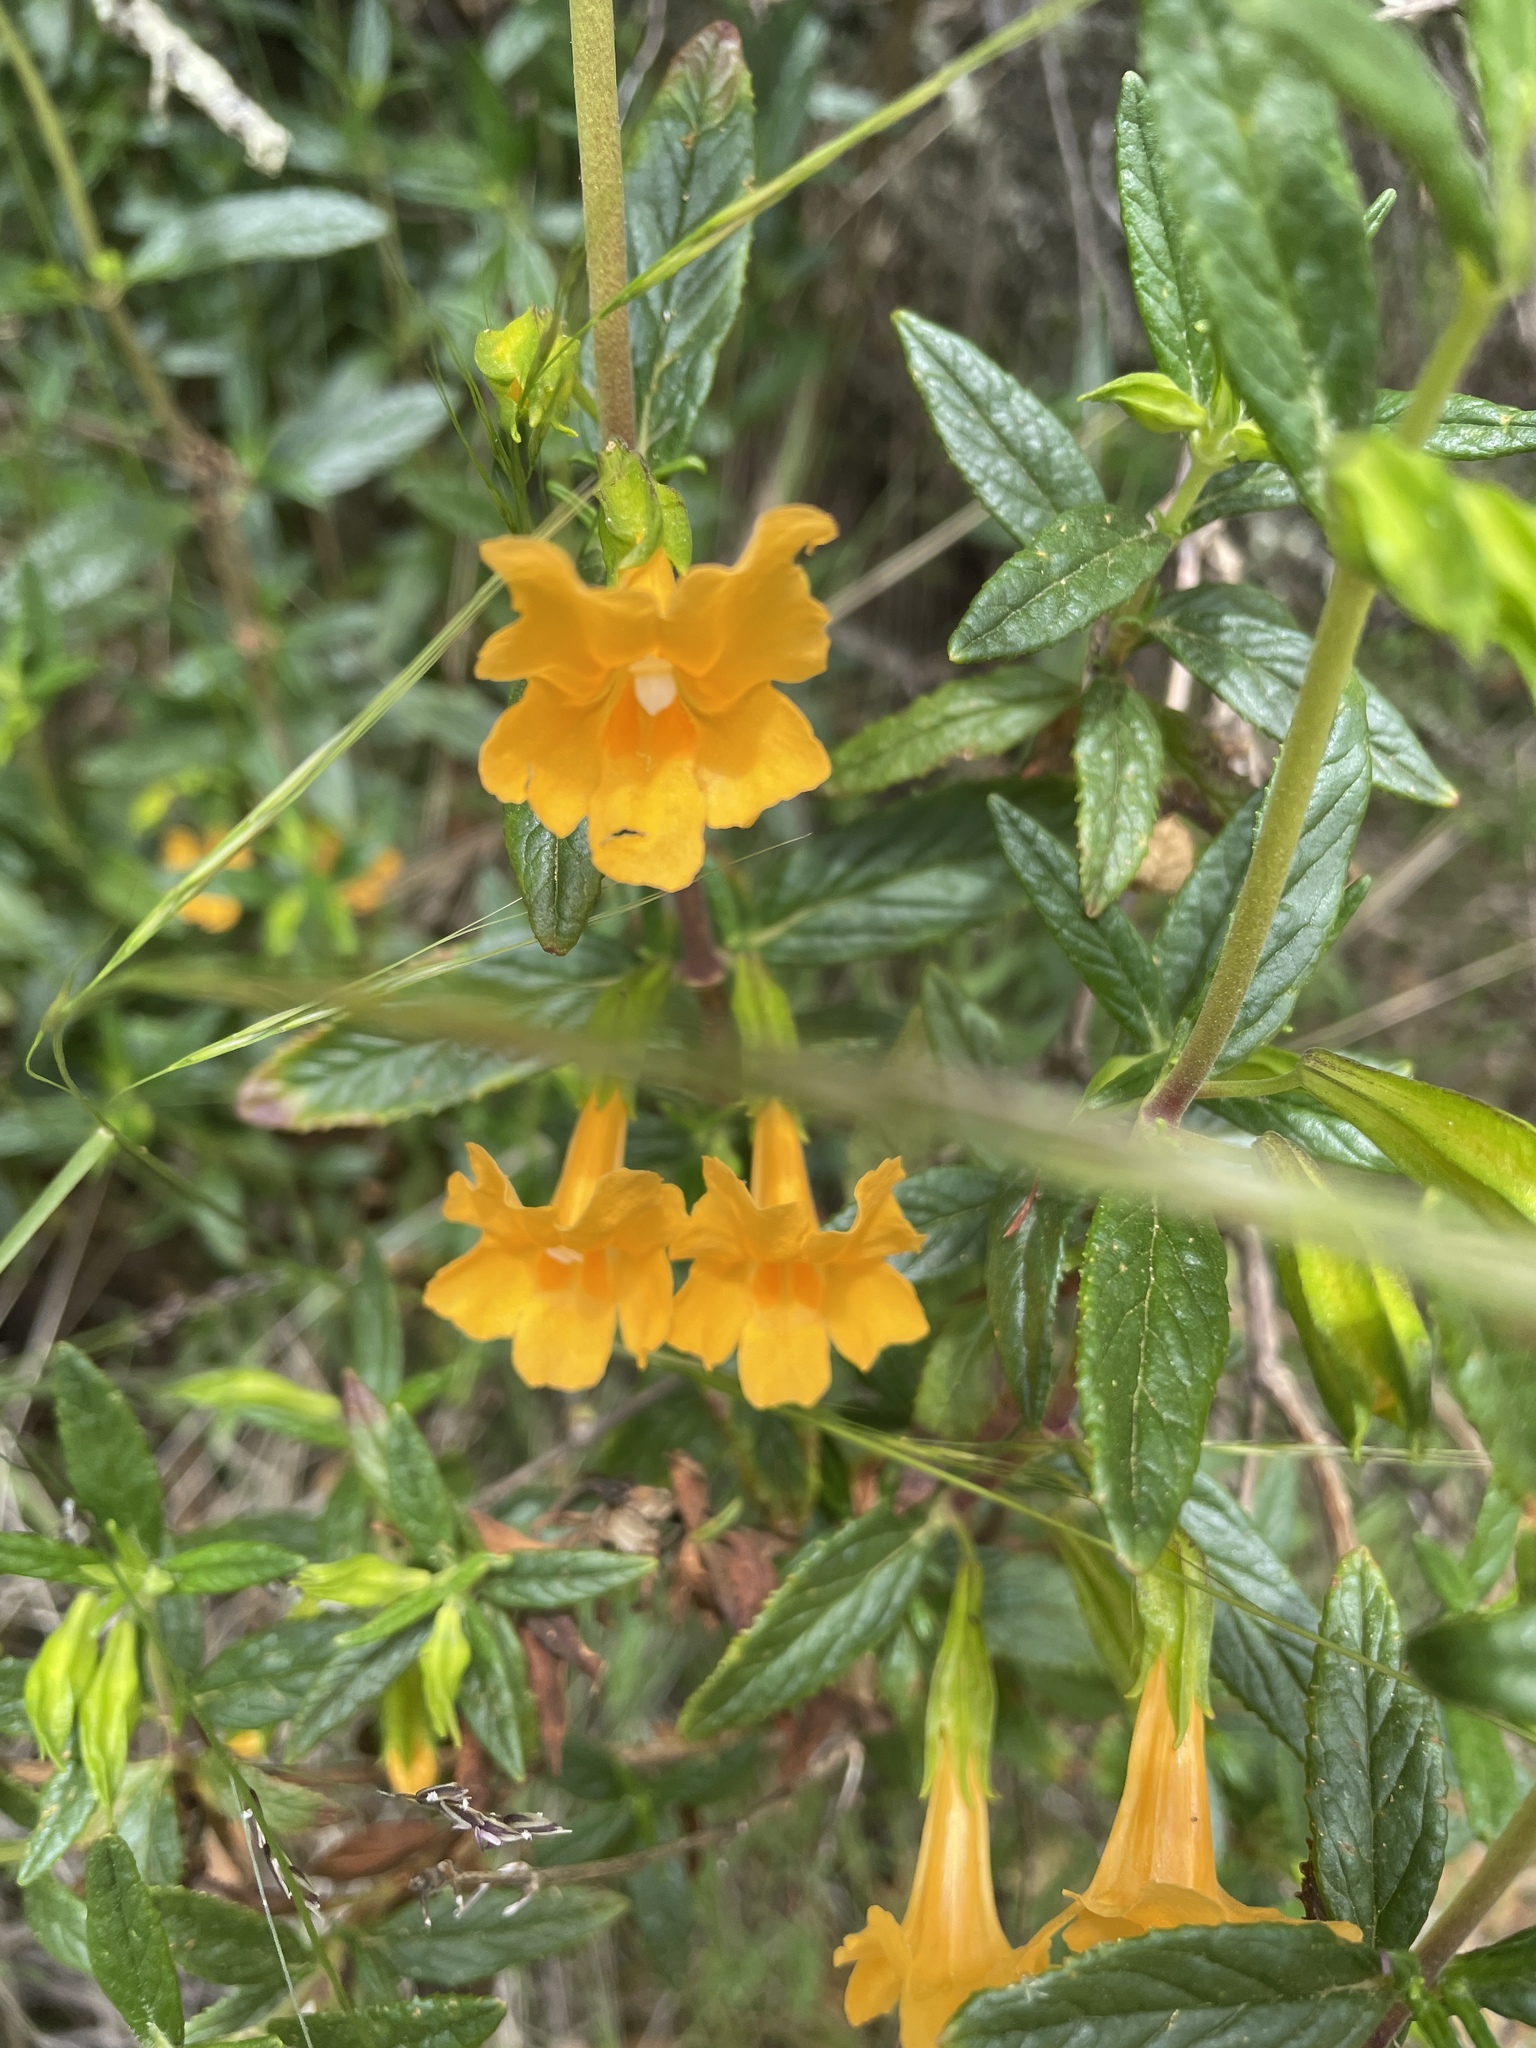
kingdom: Plantae
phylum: Tracheophyta
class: Magnoliopsida
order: Lamiales
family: Phrymaceae
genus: Diplacus
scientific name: Diplacus aurantiacus
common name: Bush monkey-flower
